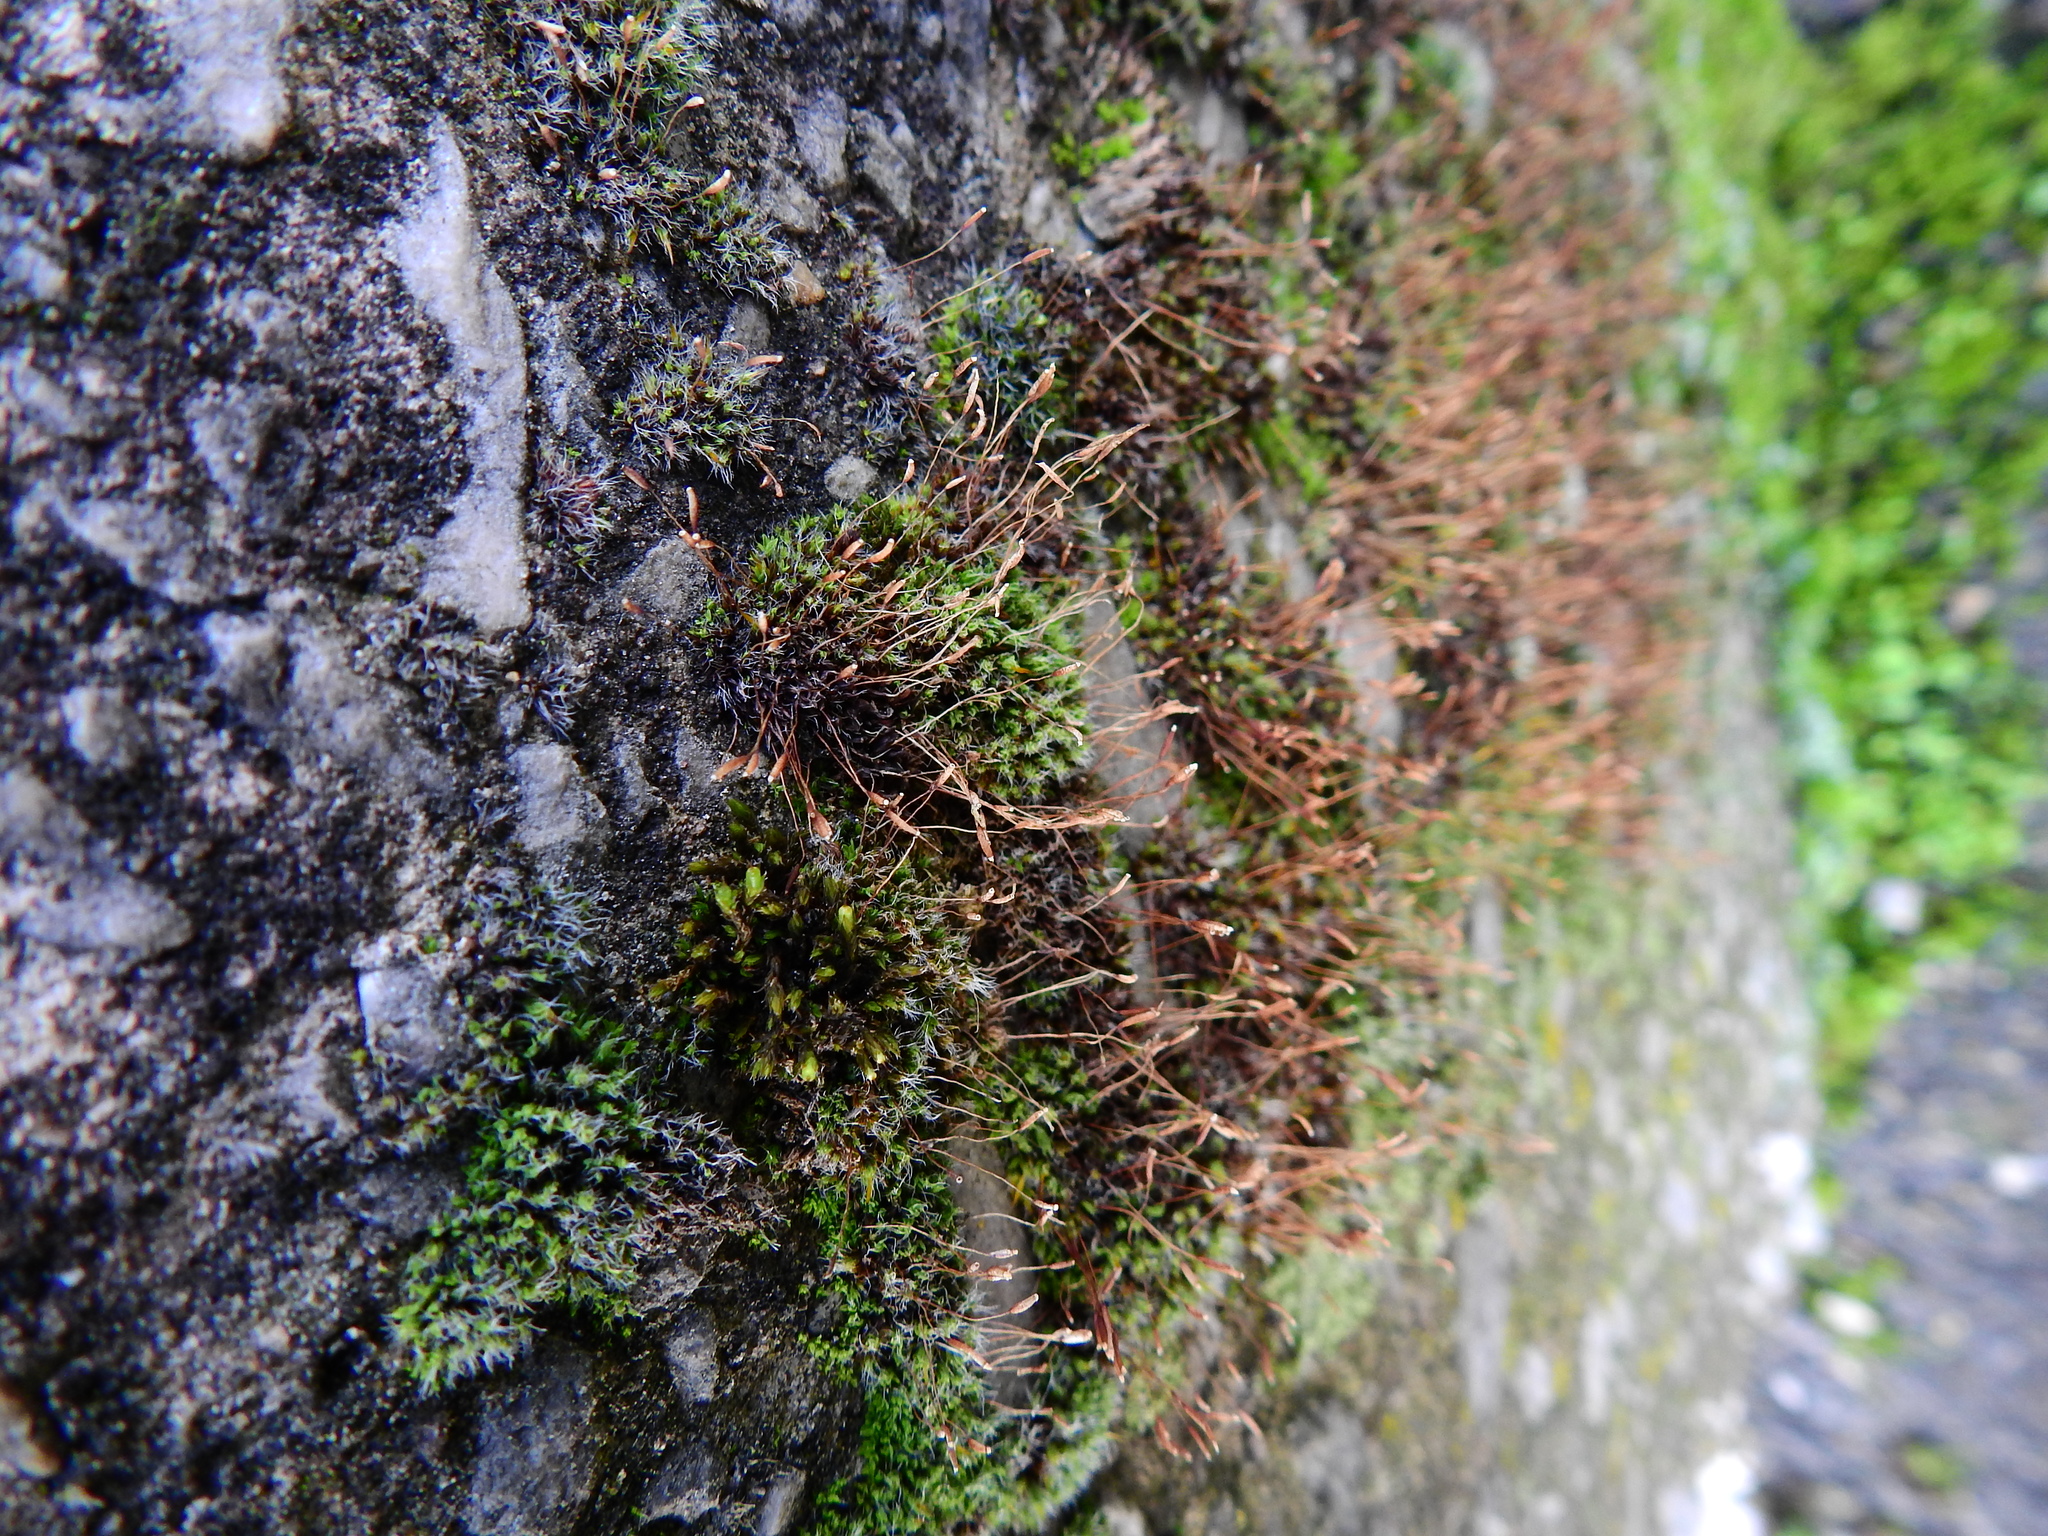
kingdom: Plantae
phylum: Bryophyta
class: Bryopsida
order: Pottiales
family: Pottiaceae
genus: Tortula
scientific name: Tortula muralis
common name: Wall screw-moss
